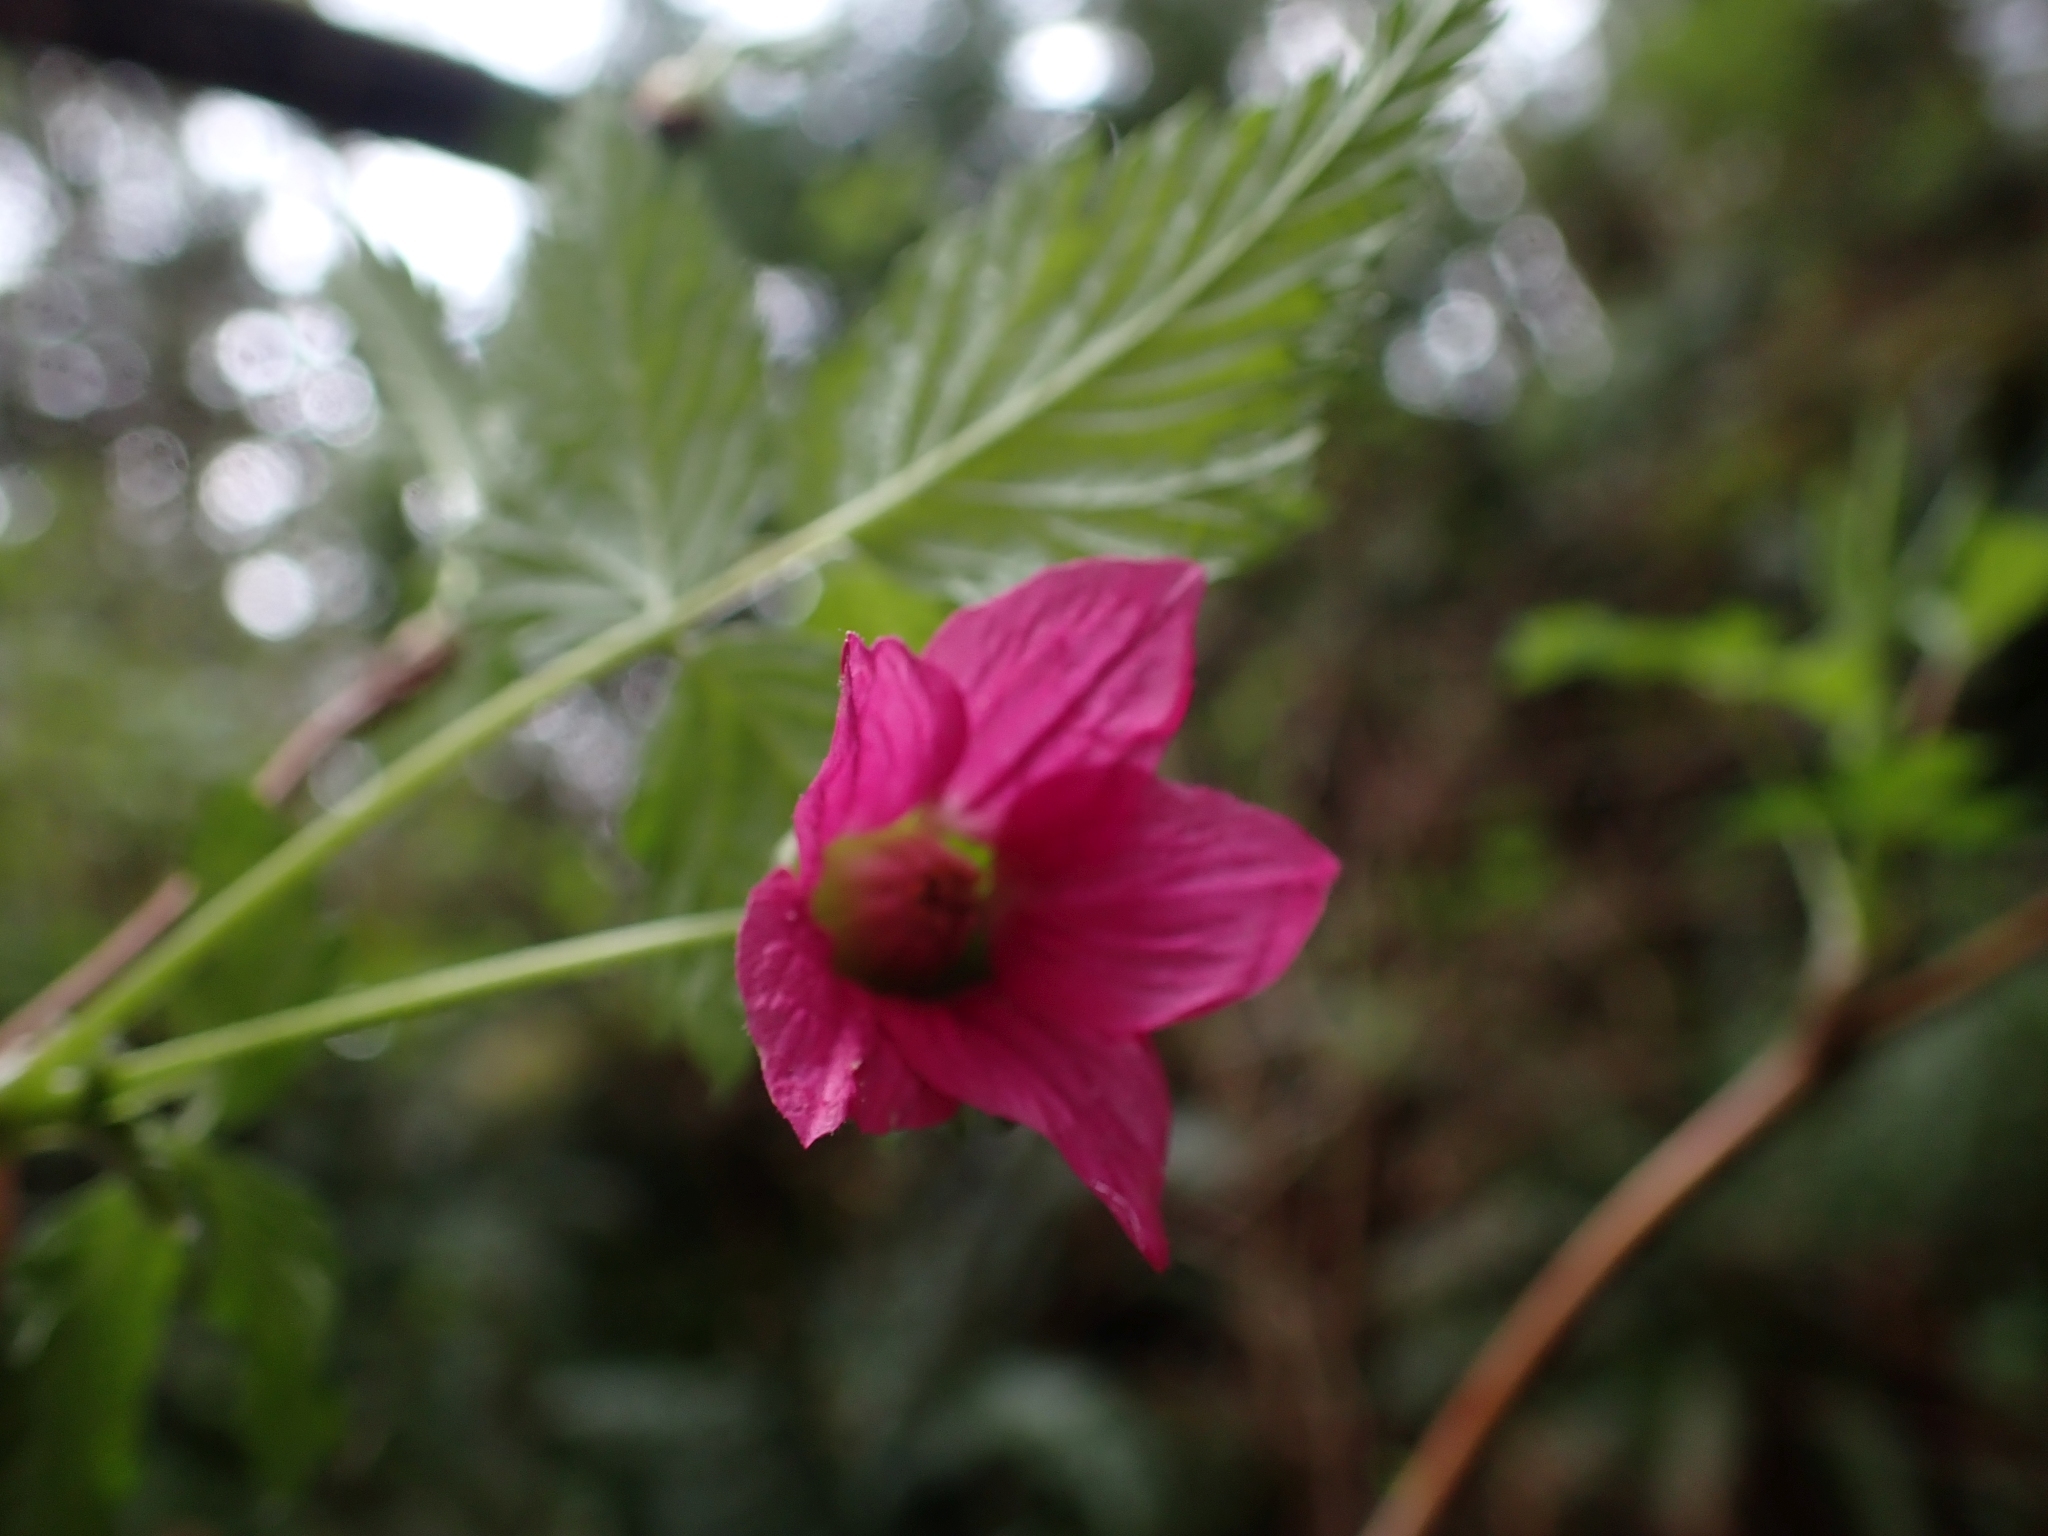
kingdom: Plantae
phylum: Tracheophyta
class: Magnoliopsida
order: Rosales
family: Rosaceae
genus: Rubus
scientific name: Rubus spectabilis
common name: Salmonberry
